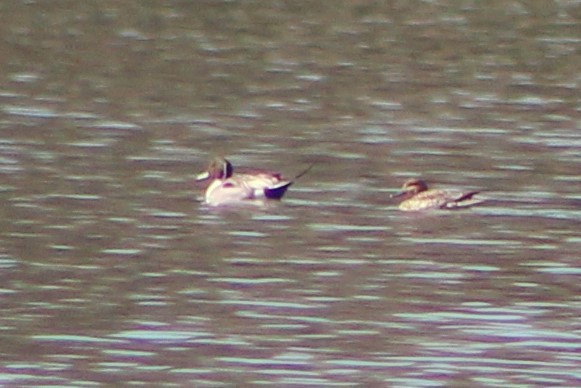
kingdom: Animalia
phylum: Chordata
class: Aves
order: Anseriformes
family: Anatidae
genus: Anas
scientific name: Anas acuta
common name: Northern pintail
